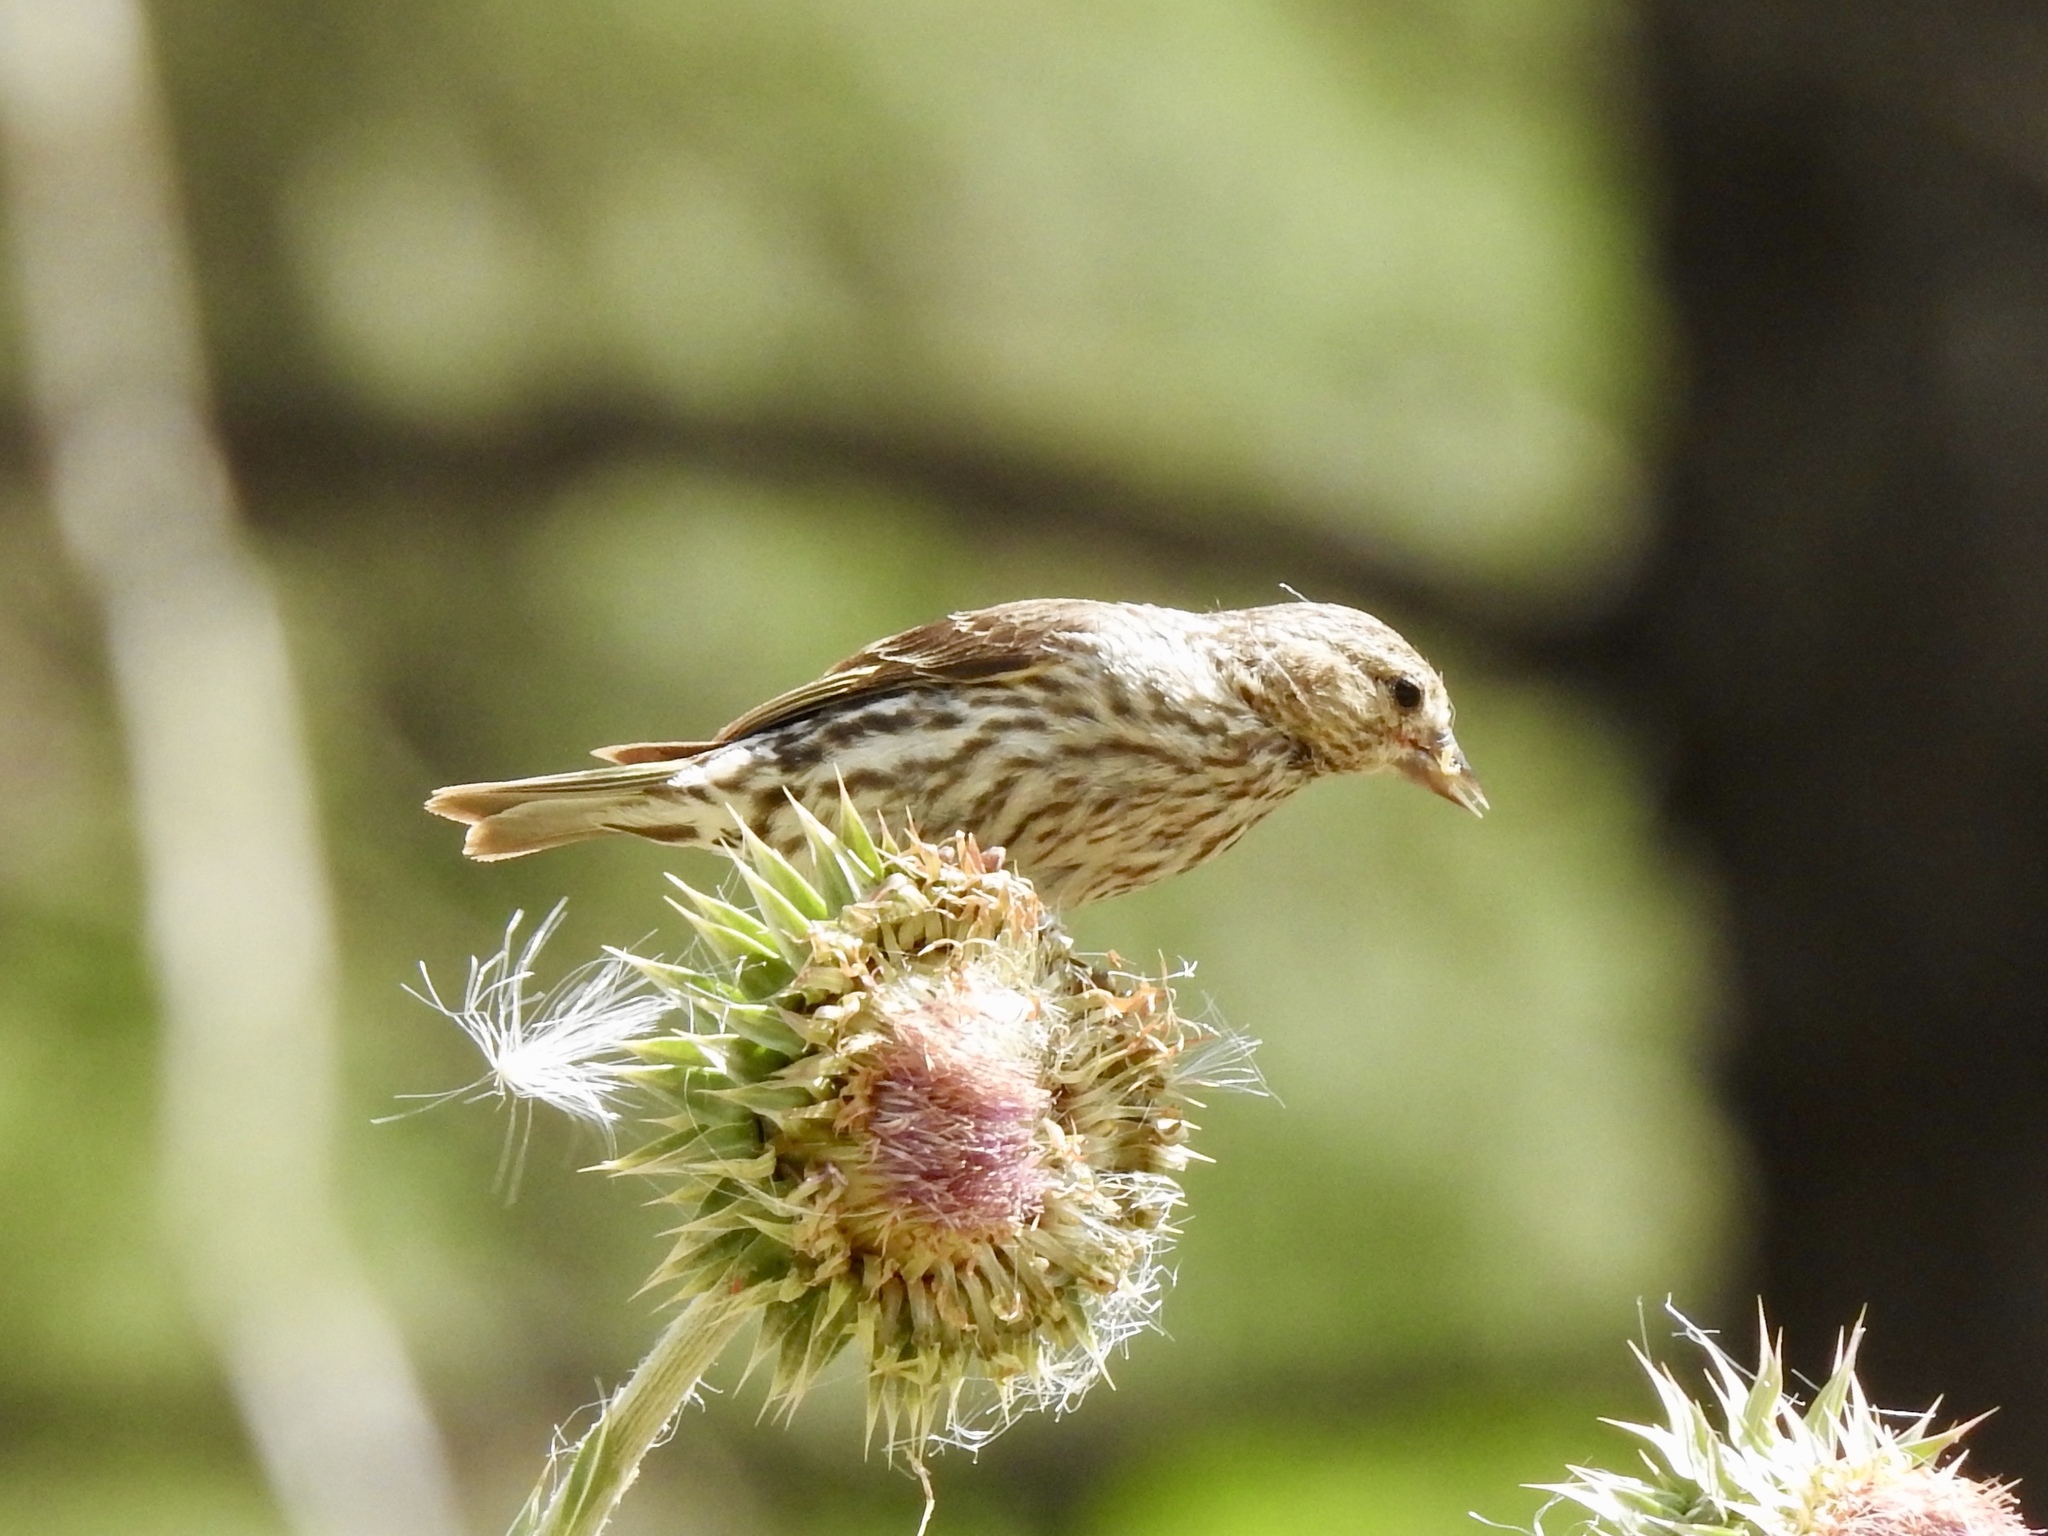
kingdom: Animalia
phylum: Chordata
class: Aves
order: Passeriformes
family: Fringillidae
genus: Spinus
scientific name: Spinus pinus
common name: Pine siskin
